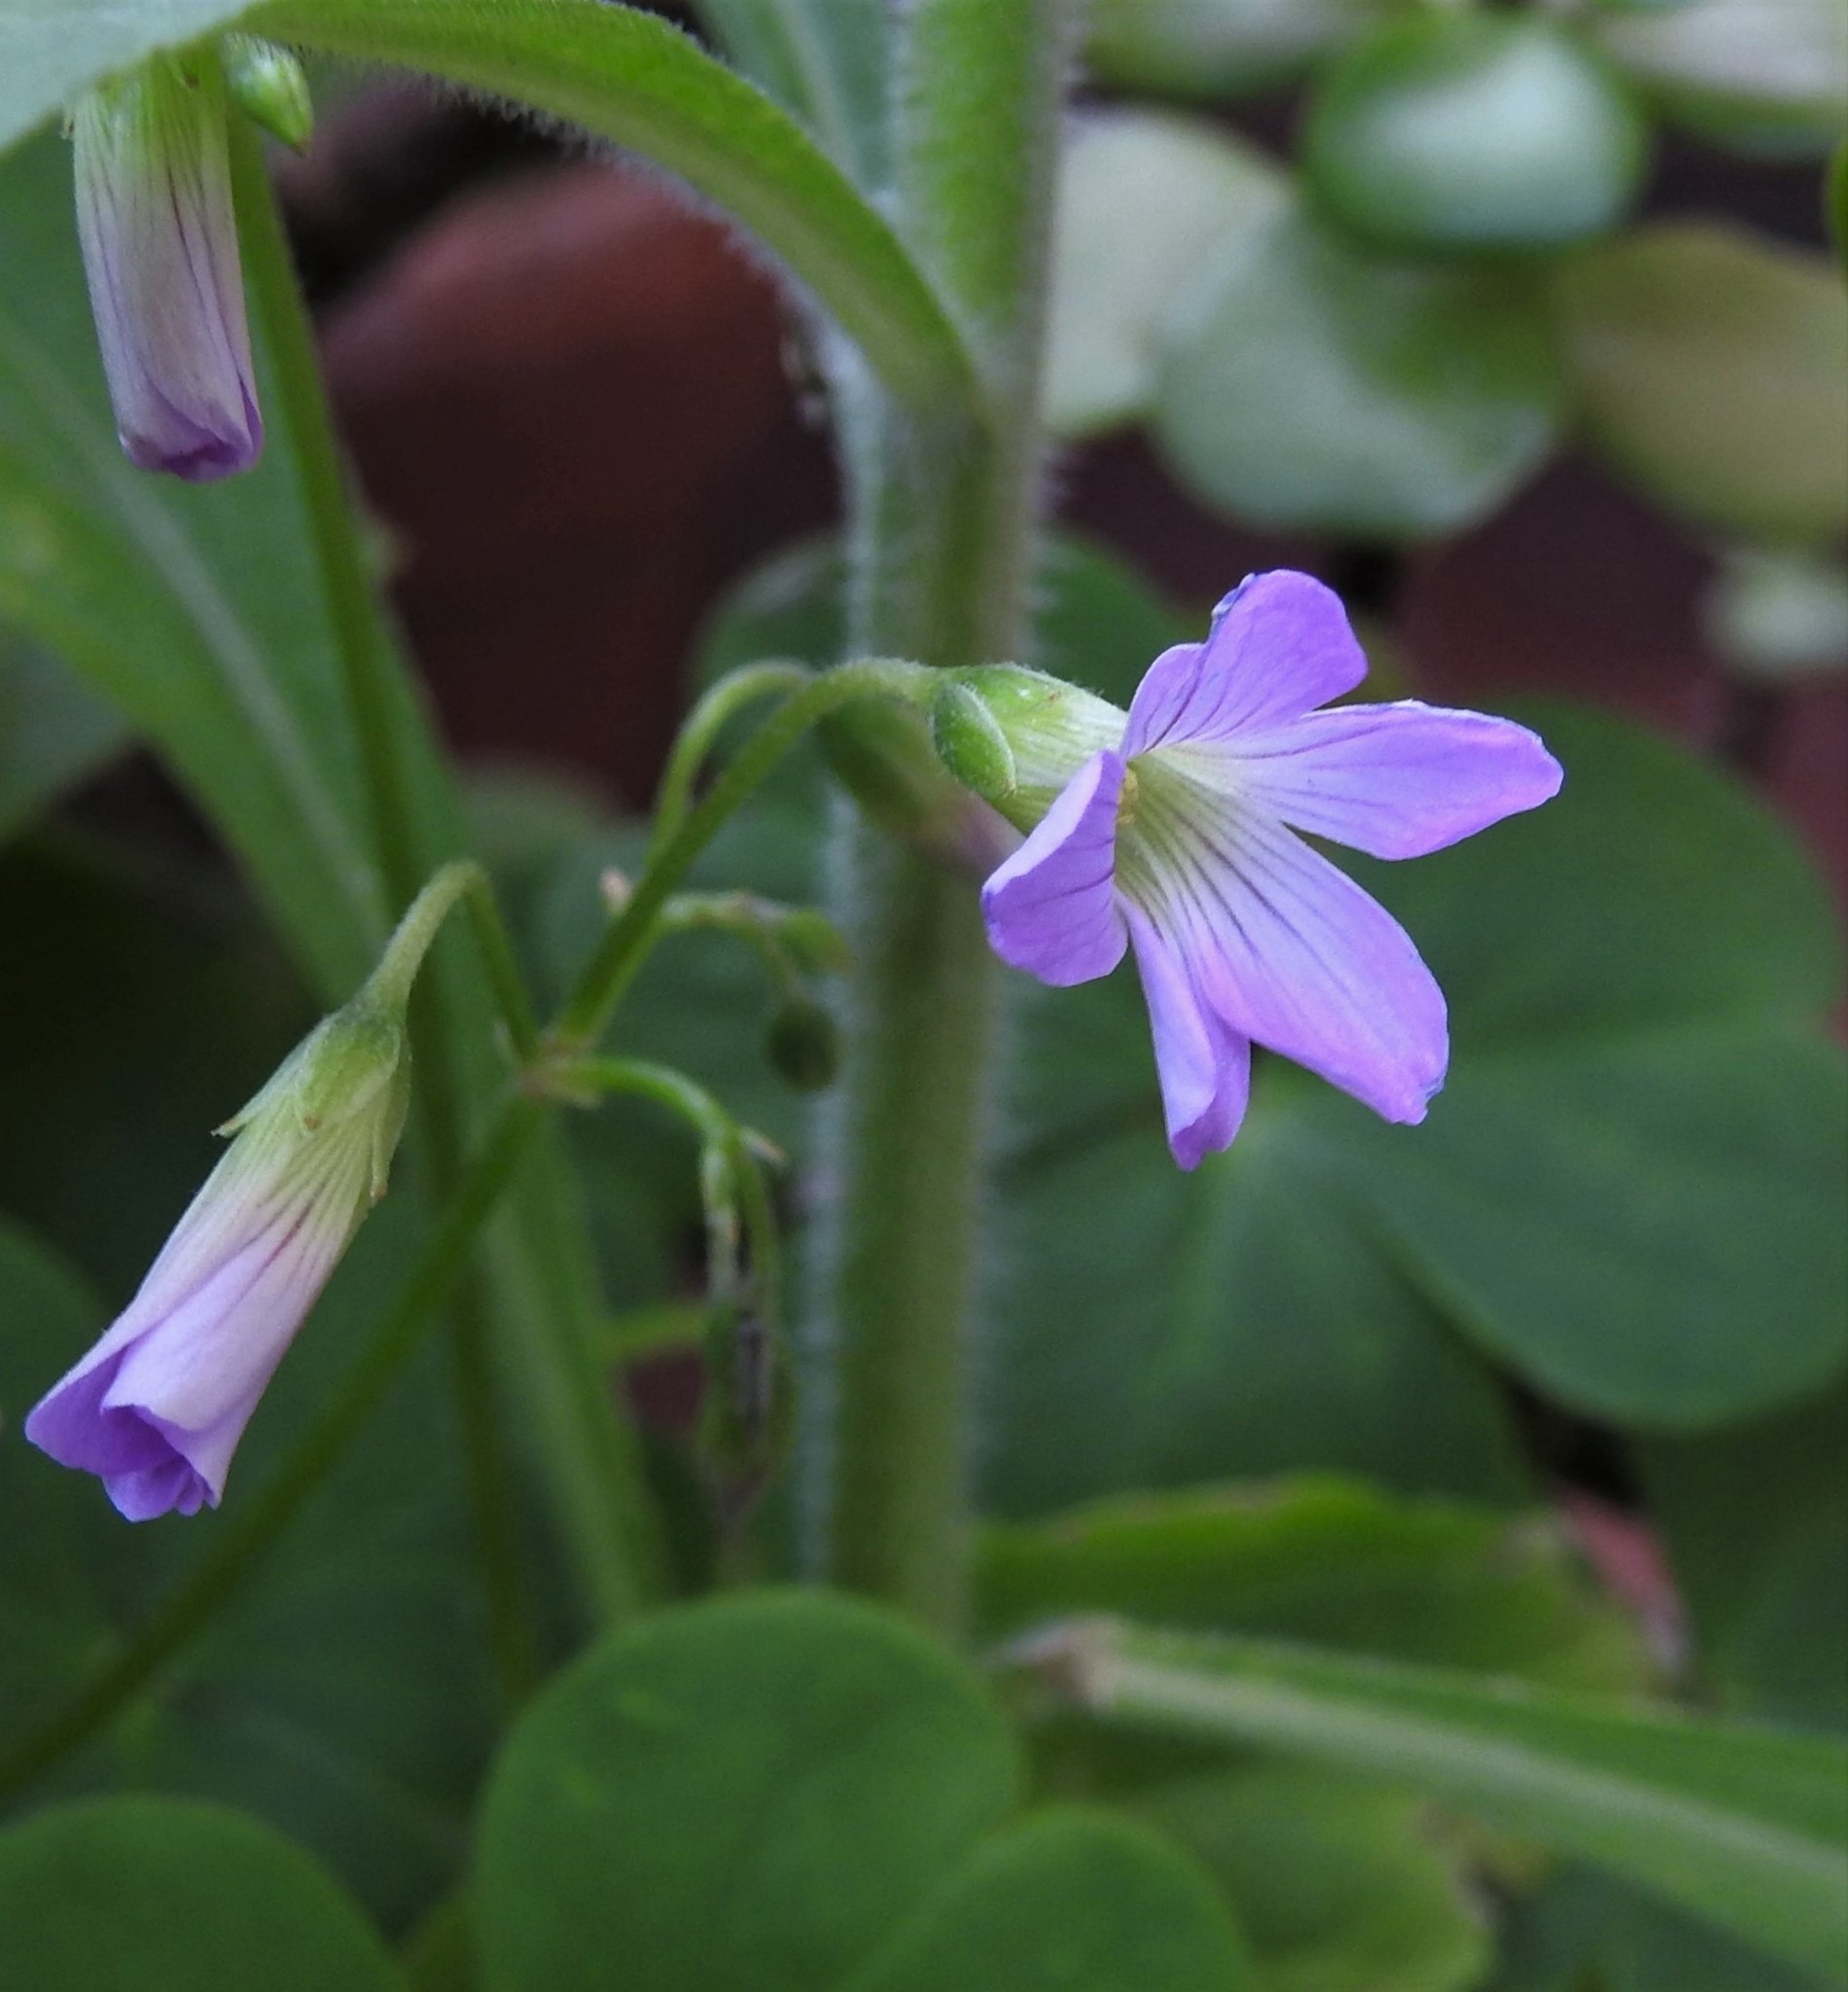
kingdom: Plantae
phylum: Tracheophyta
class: Magnoliopsida
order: Oxalidales
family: Oxalidaceae
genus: Oxalis
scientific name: Oxalis debilis
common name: Large-flowered pink-sorrel
